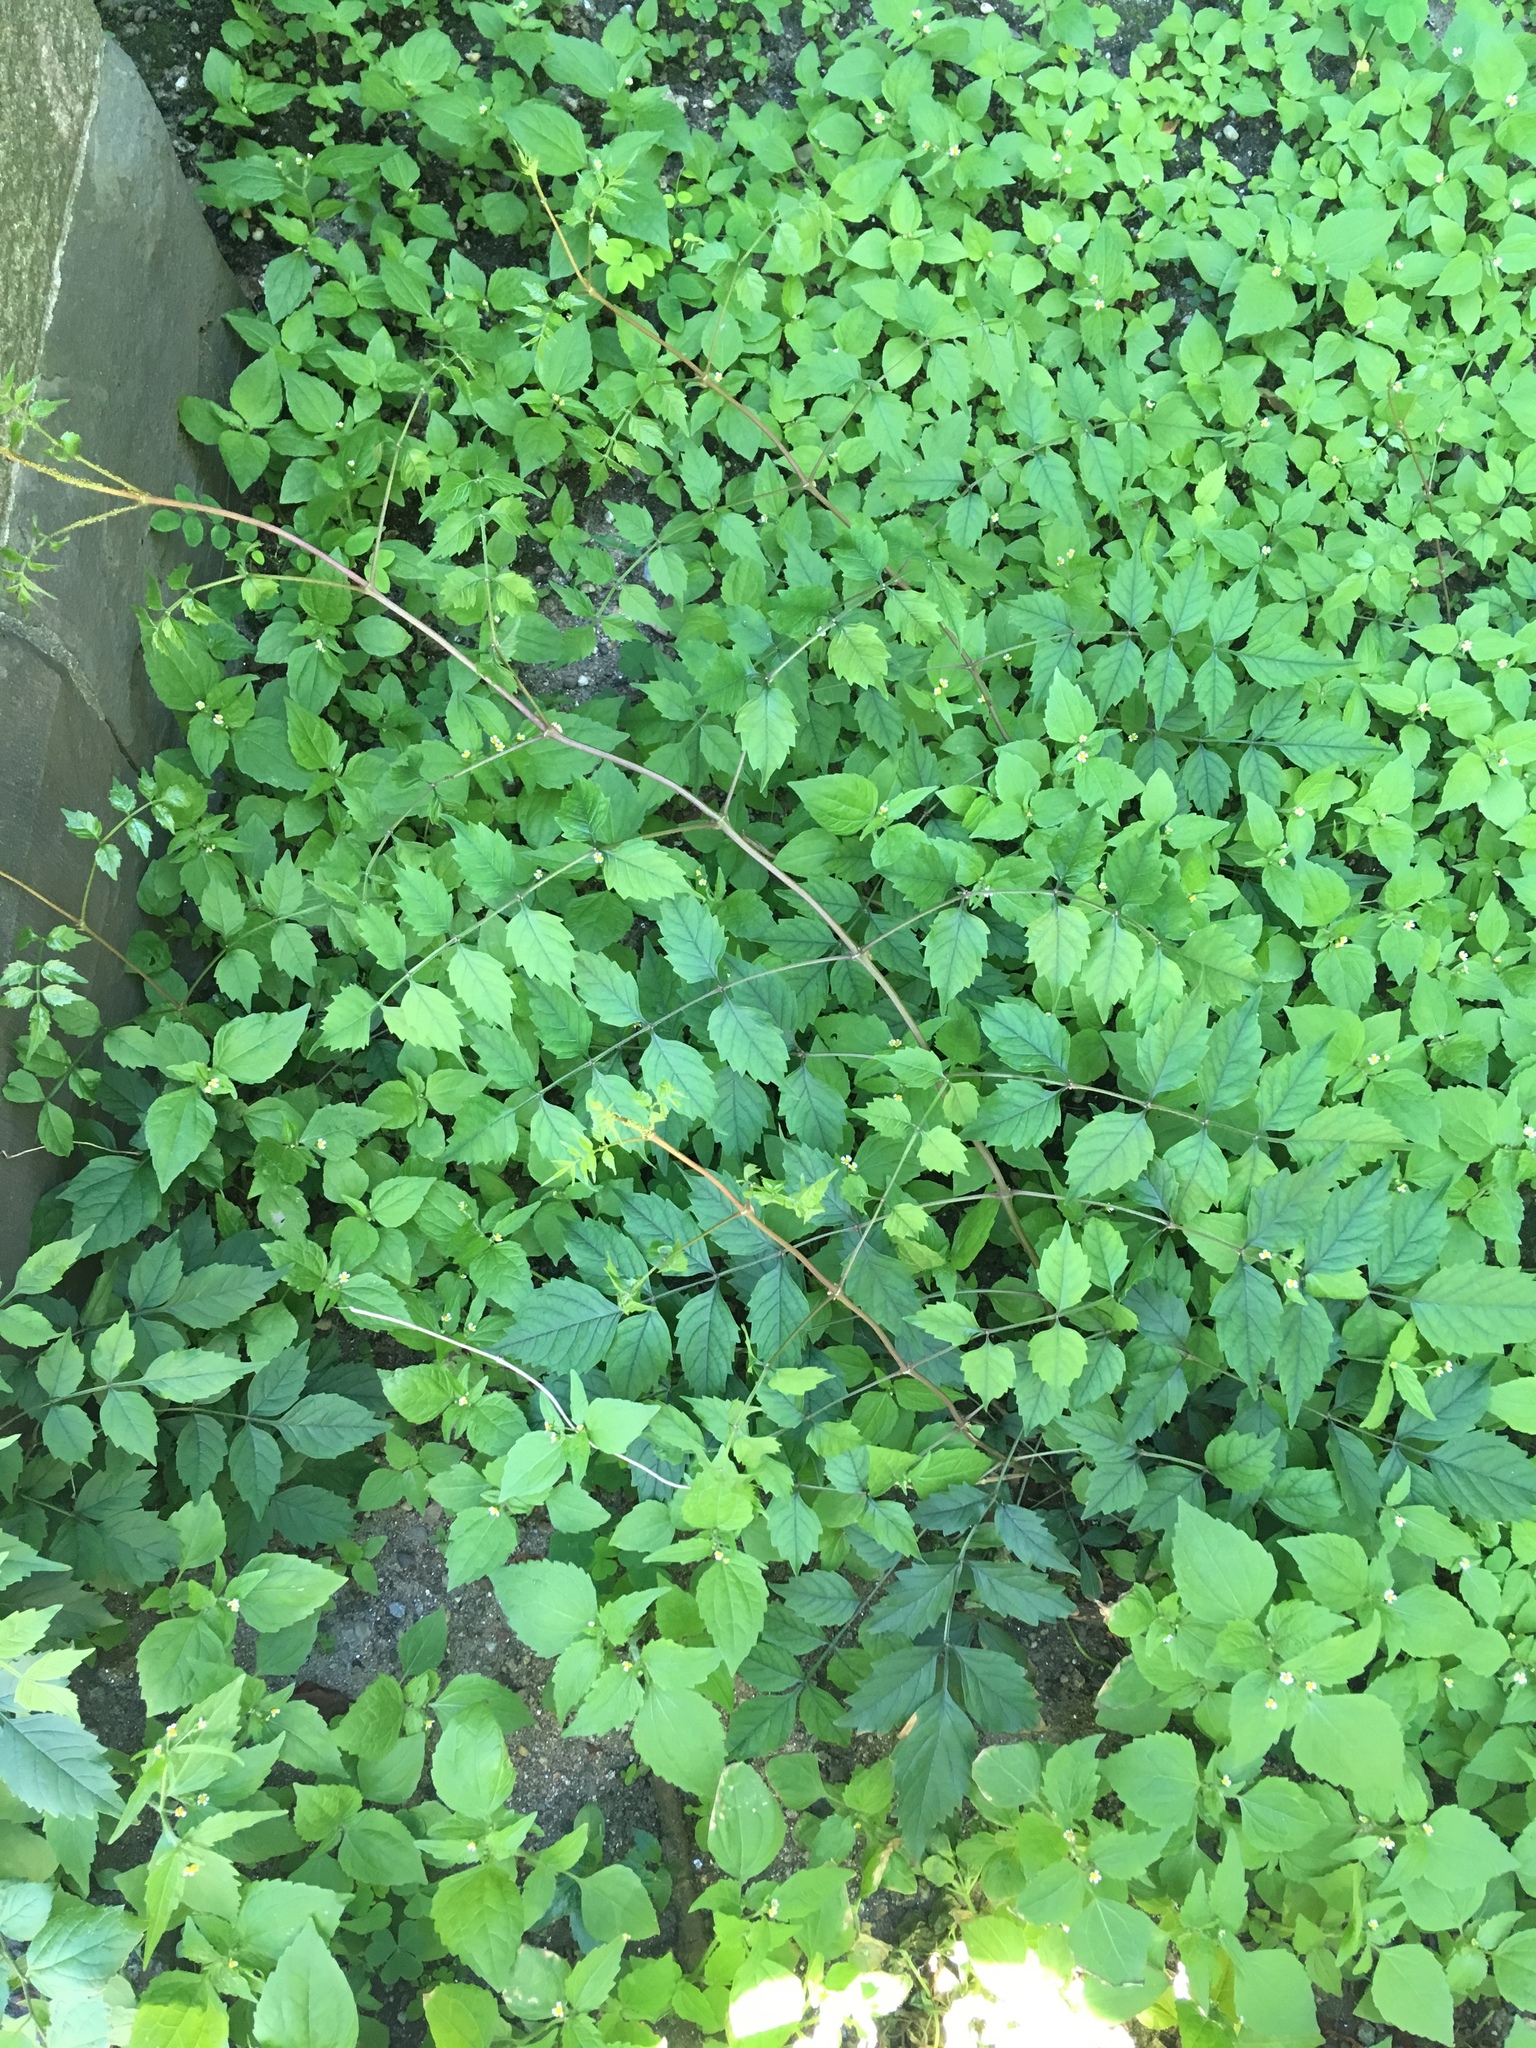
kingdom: Plantae
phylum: Tracheophyta
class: Magnoliopsida
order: Lamiales
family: Bignoniaceae
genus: Campsis
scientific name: Campsis radicans
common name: Trumpet-creeper
